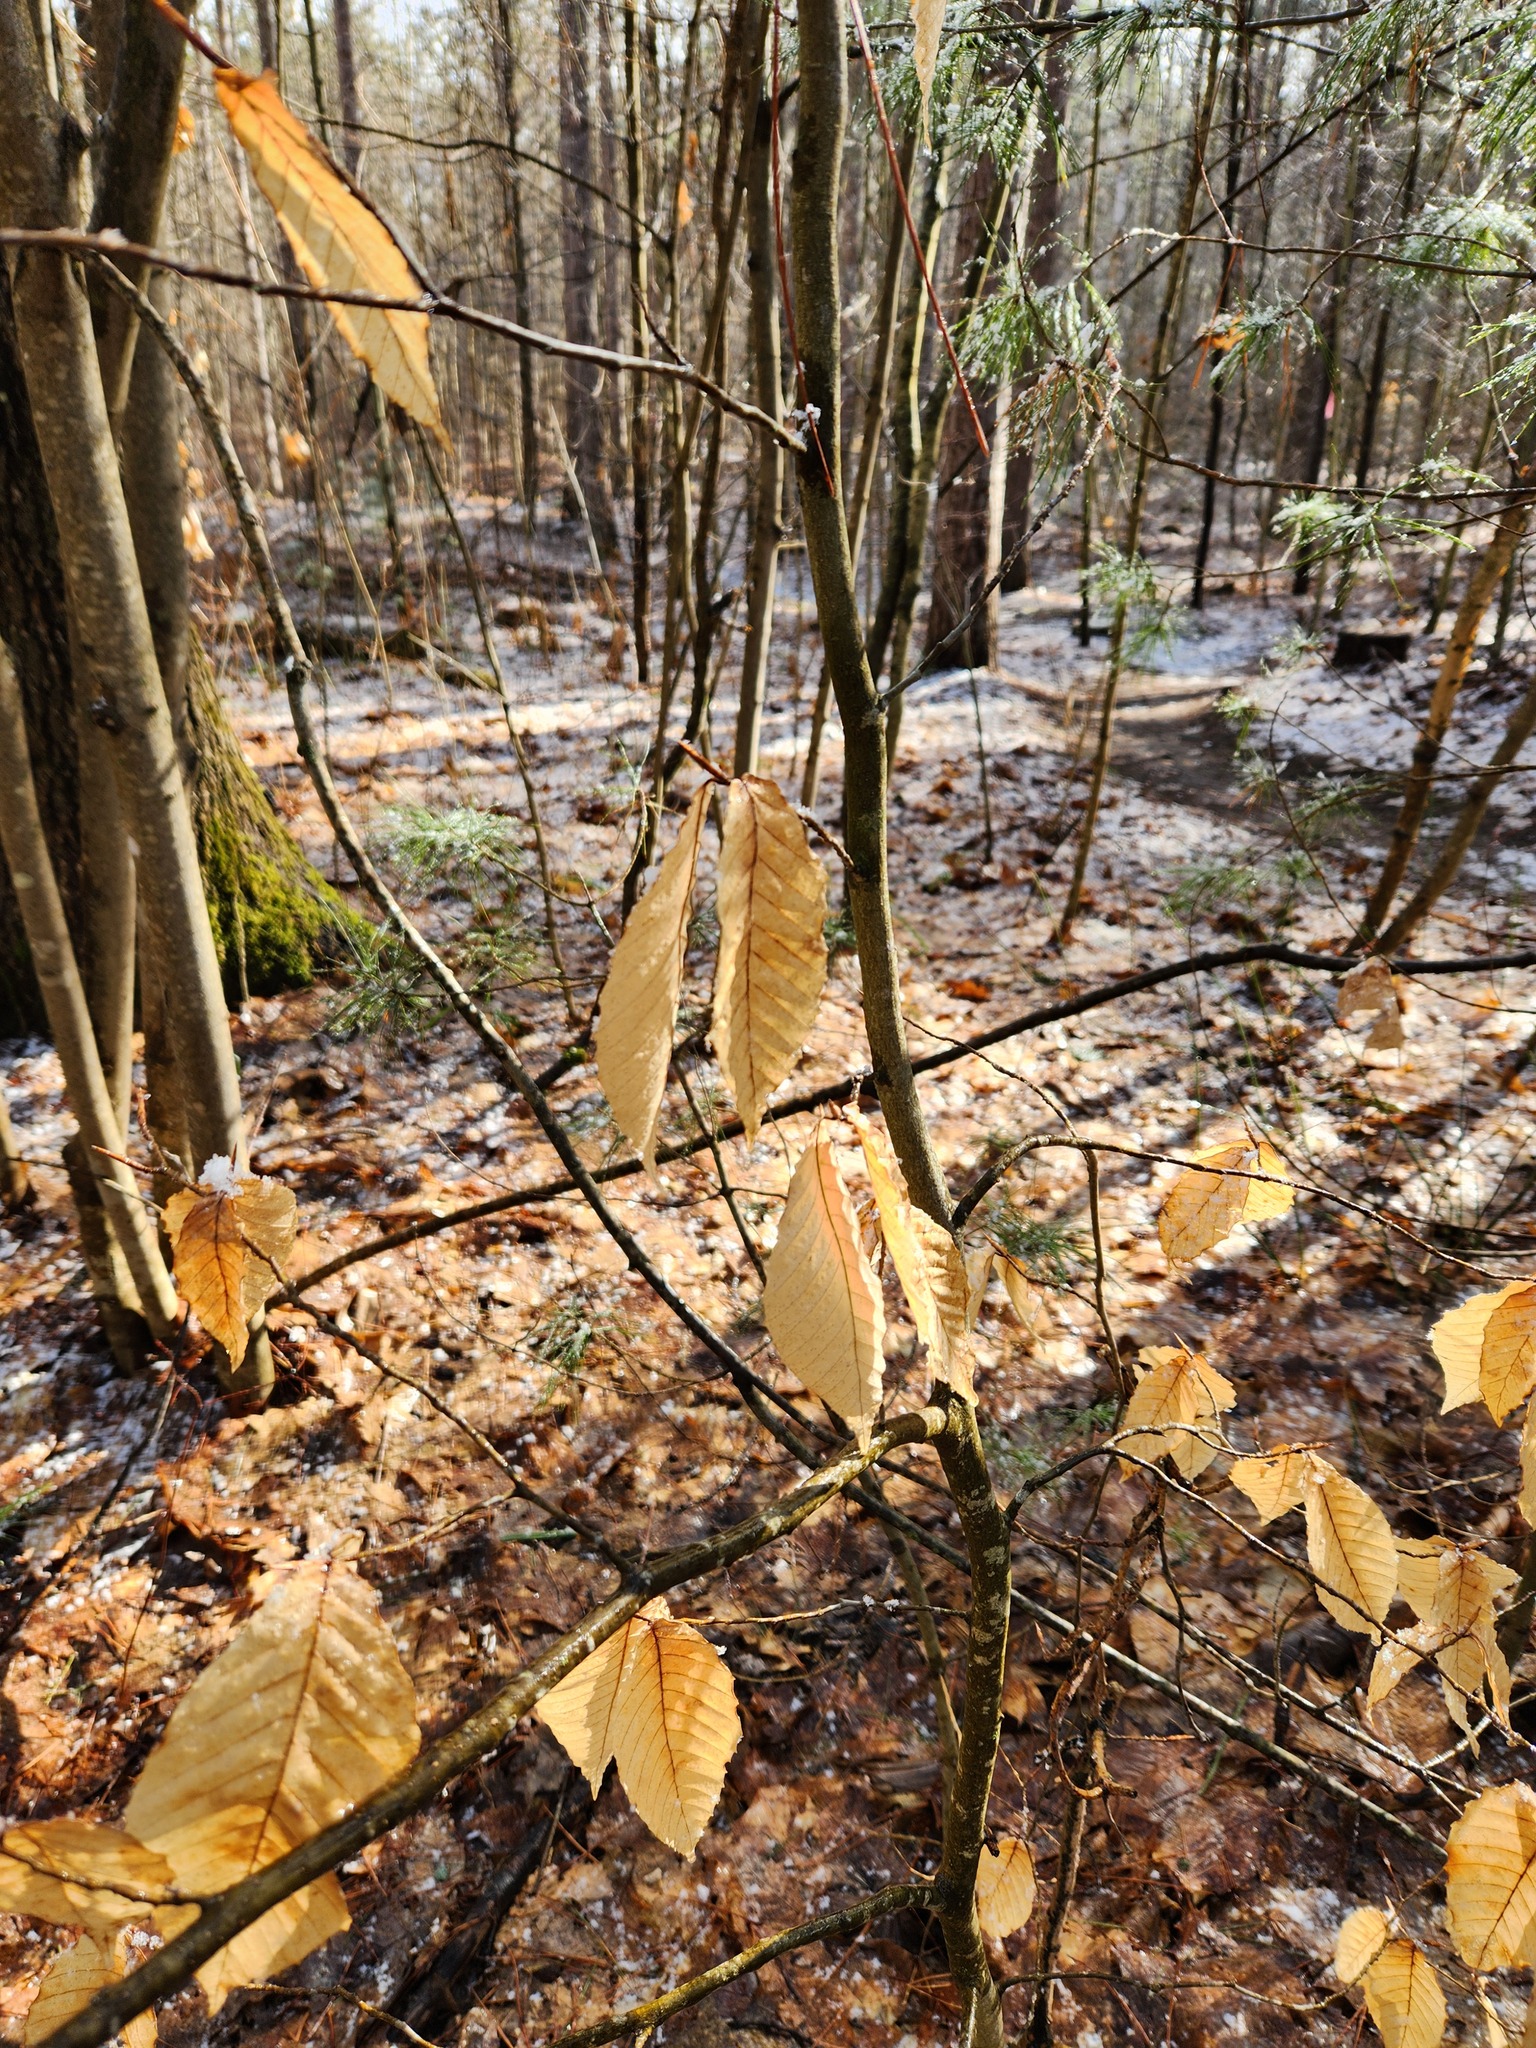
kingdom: Plantae
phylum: Tracheophyta
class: Magnoliopsida
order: Fagales
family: Fagaceae
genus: Fagus
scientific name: Fagus grandifolia
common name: American beech
